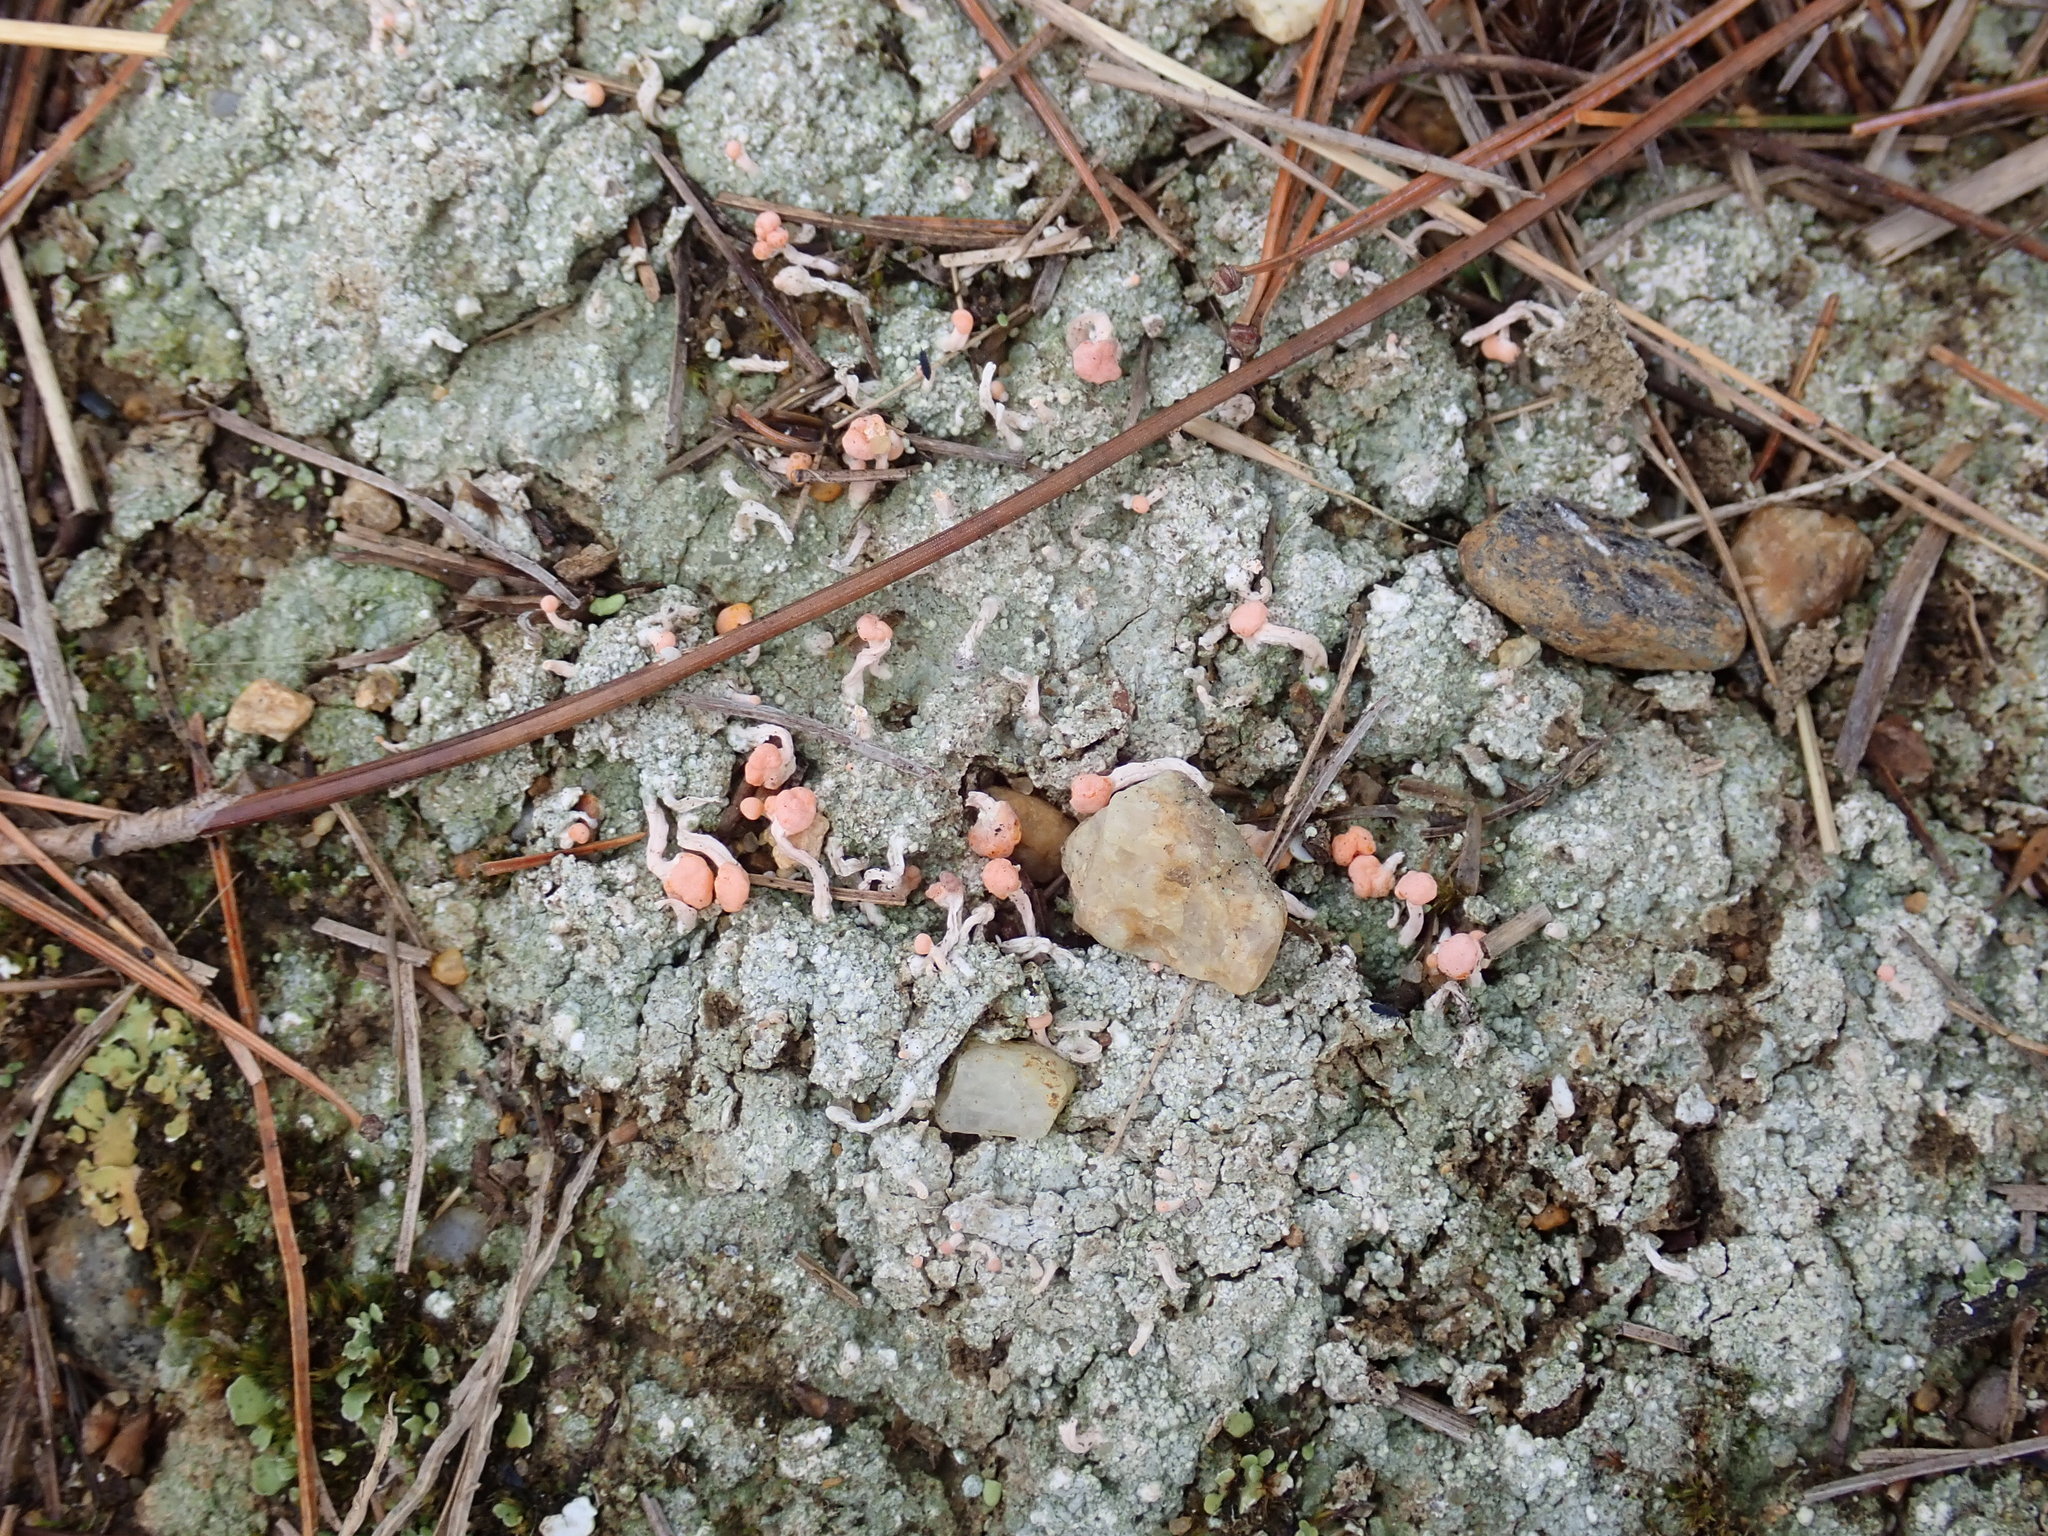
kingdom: Fungi
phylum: Ascomycota
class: Lecanoromycetes
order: Pertusariales
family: Icmadophilaceae
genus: Dibaeis
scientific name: Dibaeis baeomyces
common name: Pink earth lichen
